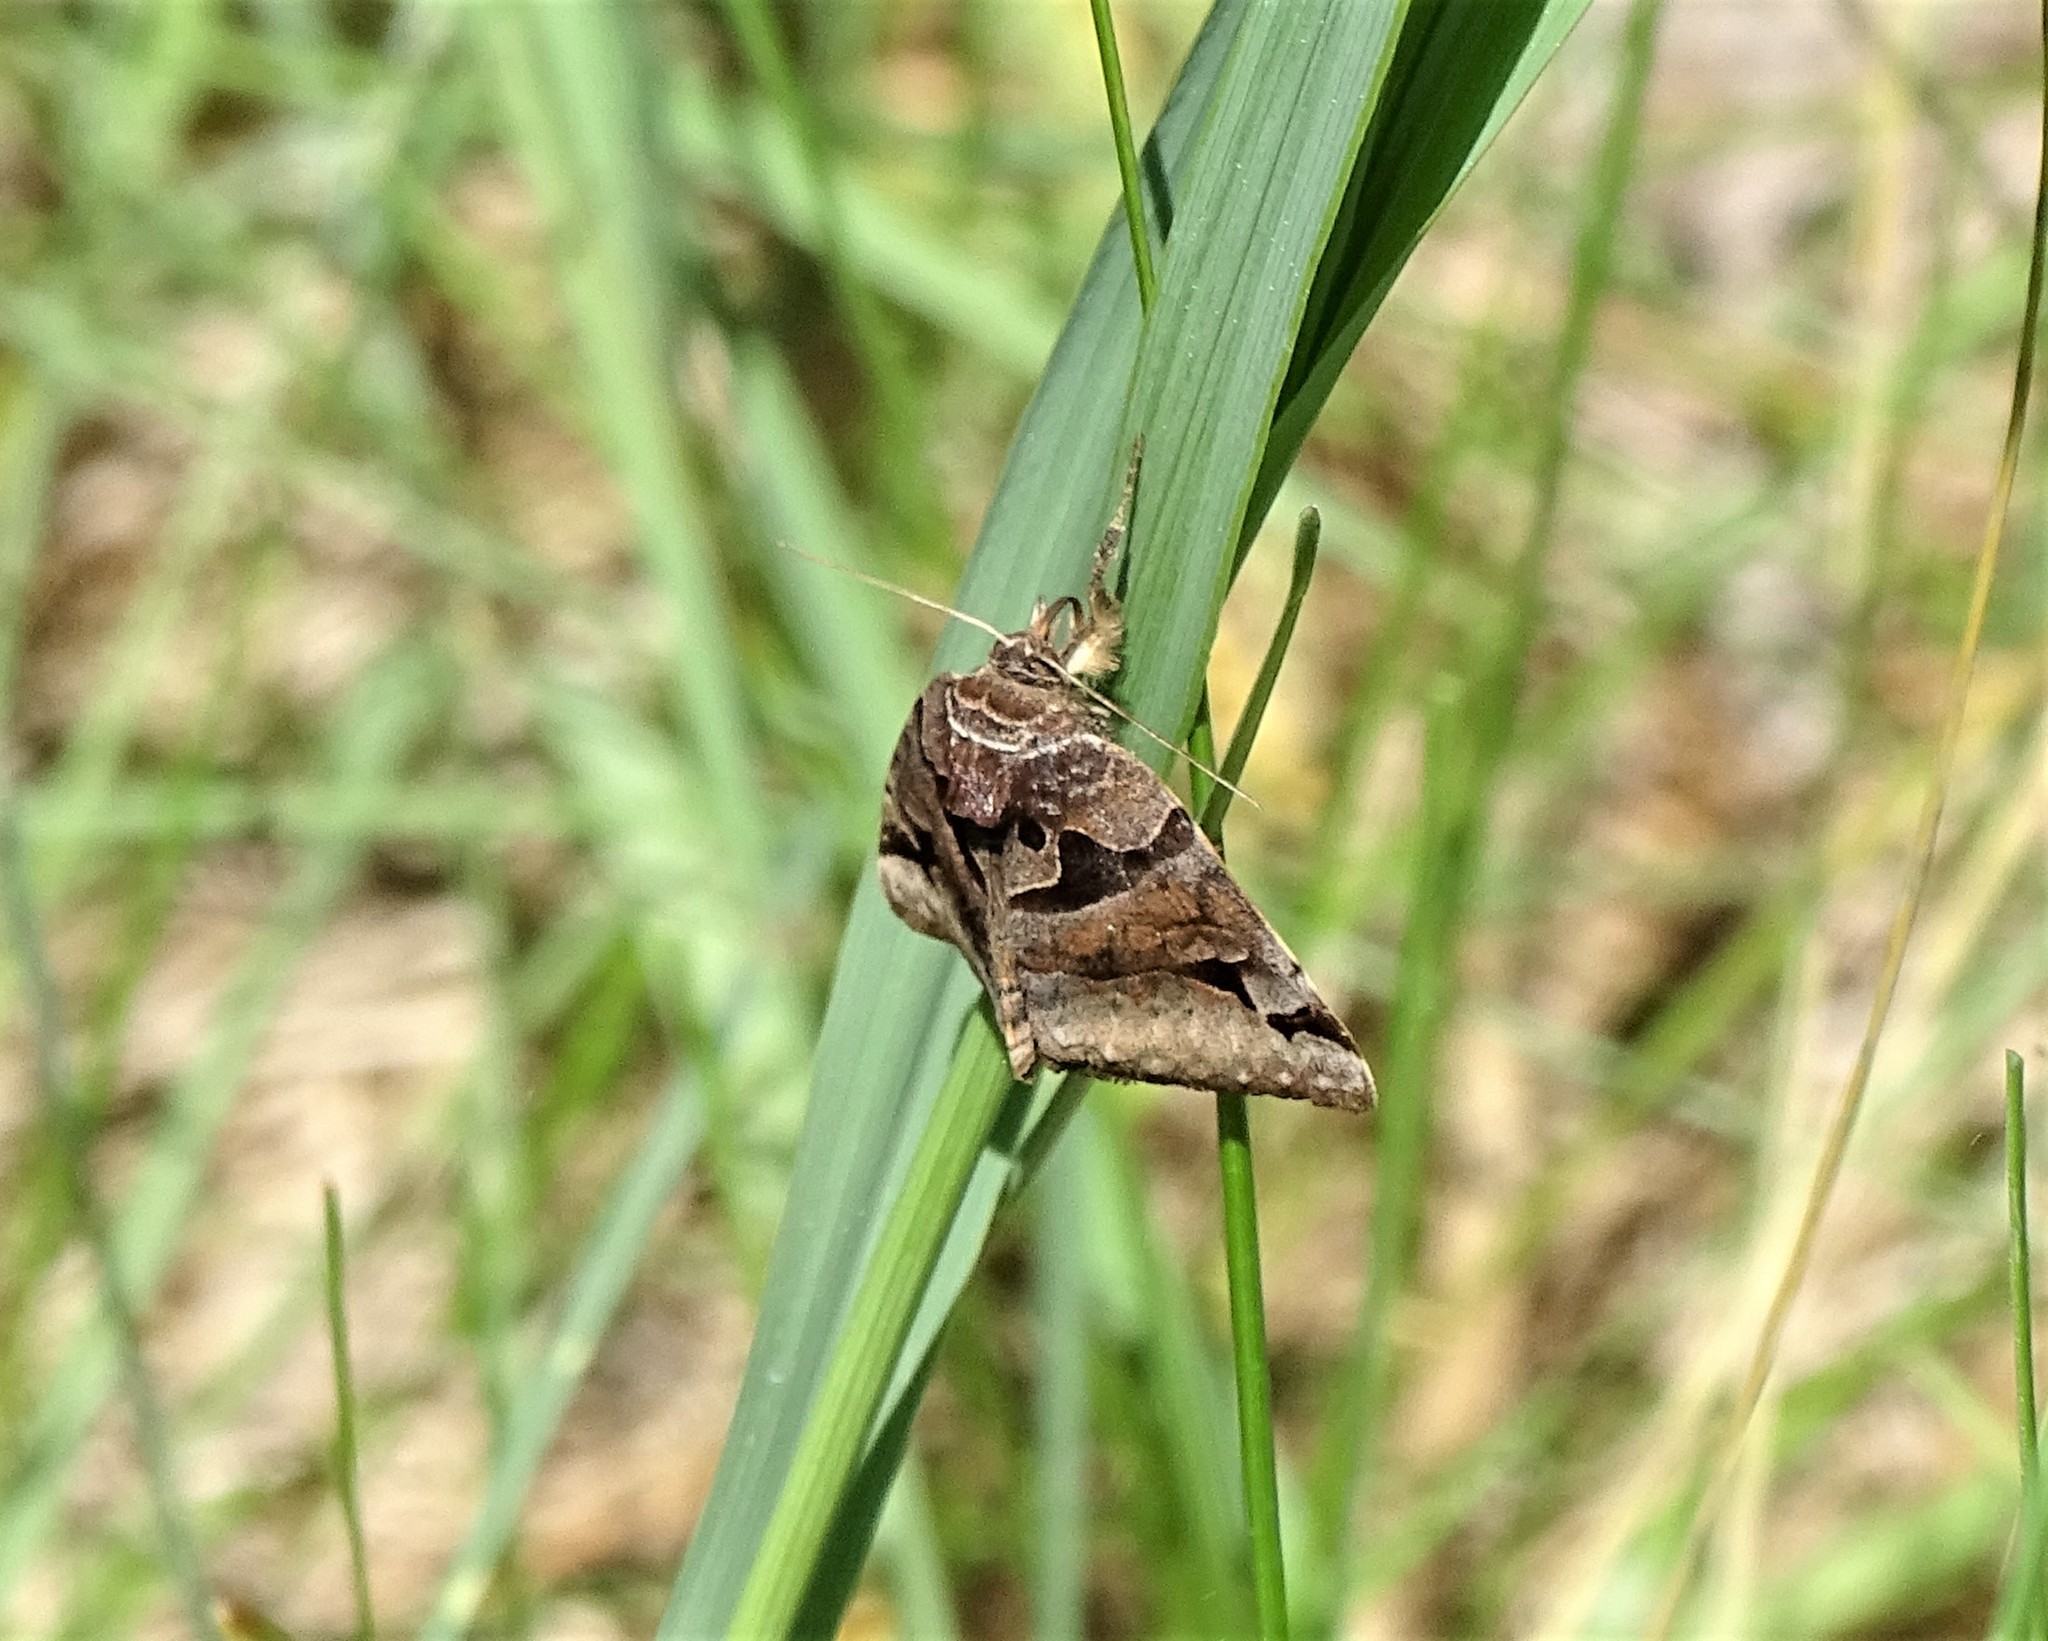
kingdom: Animalia
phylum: Arthropoda
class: Insecta
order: Lepidoptera
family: Erebidae
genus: Euclidia
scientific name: Euclidia cuspidea
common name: Toothed somberwing
